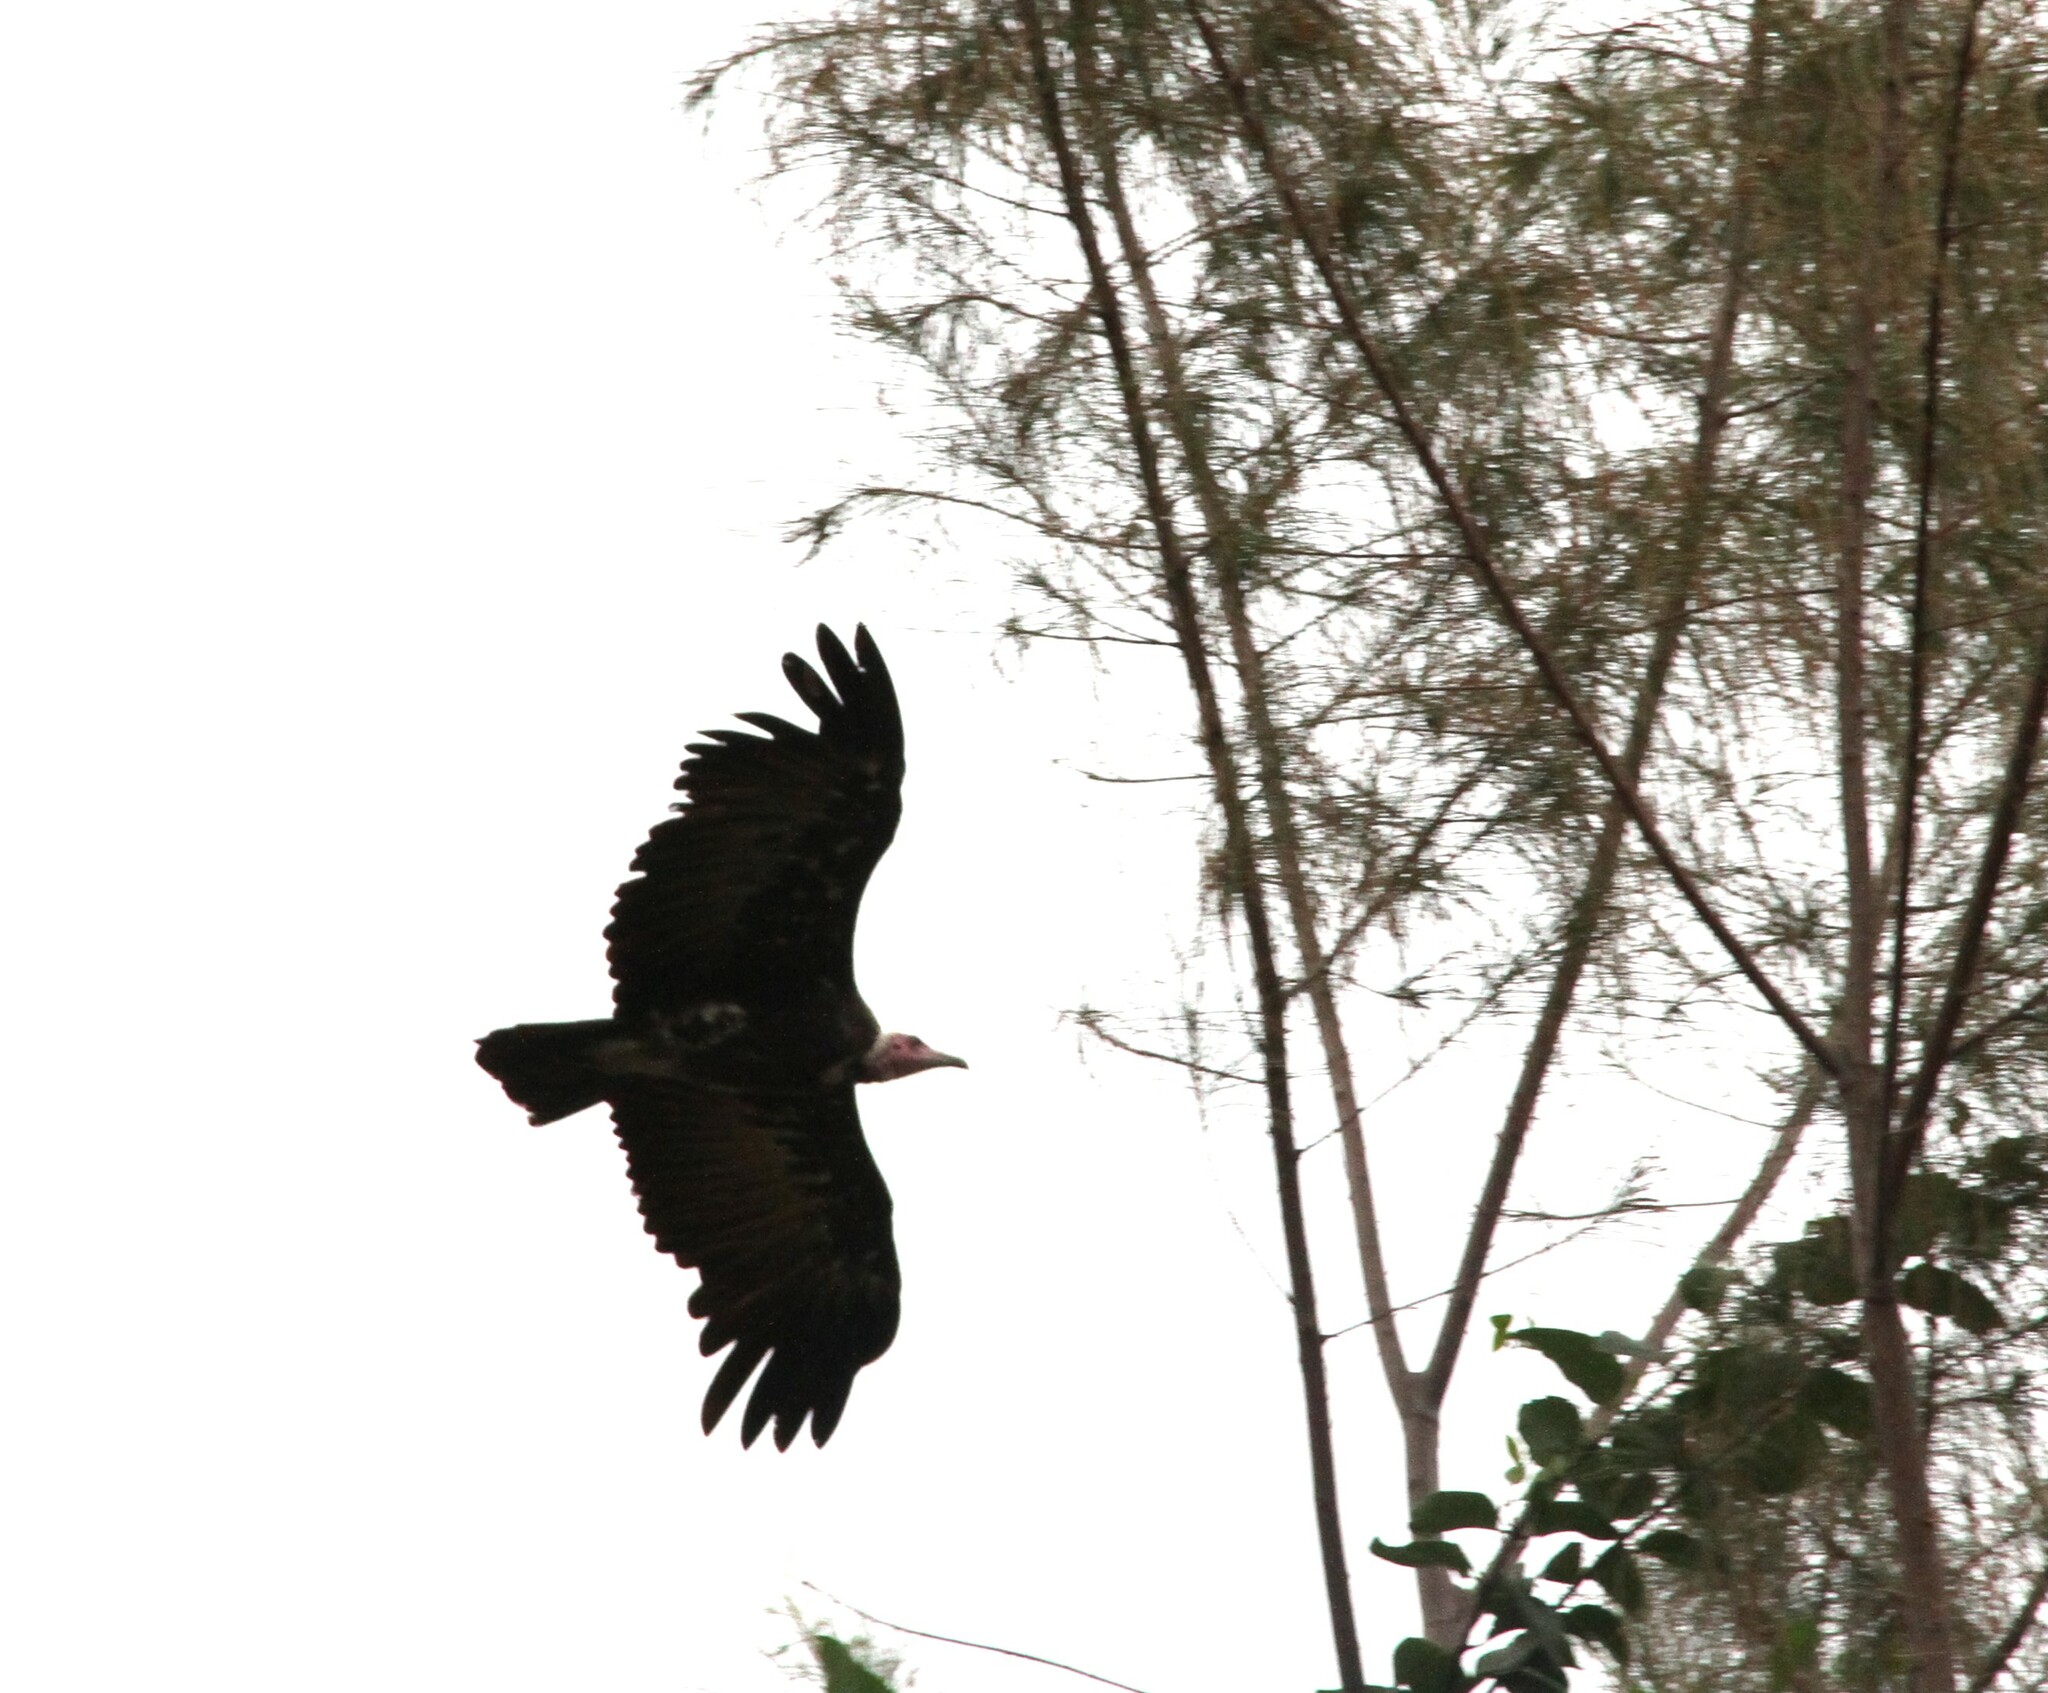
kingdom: Animalia
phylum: Chordata
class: Aves
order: Accipitriformes
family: Accipitridae
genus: Necrosyrtes
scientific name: Necrosyrtes monachus
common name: Hooded vulture
